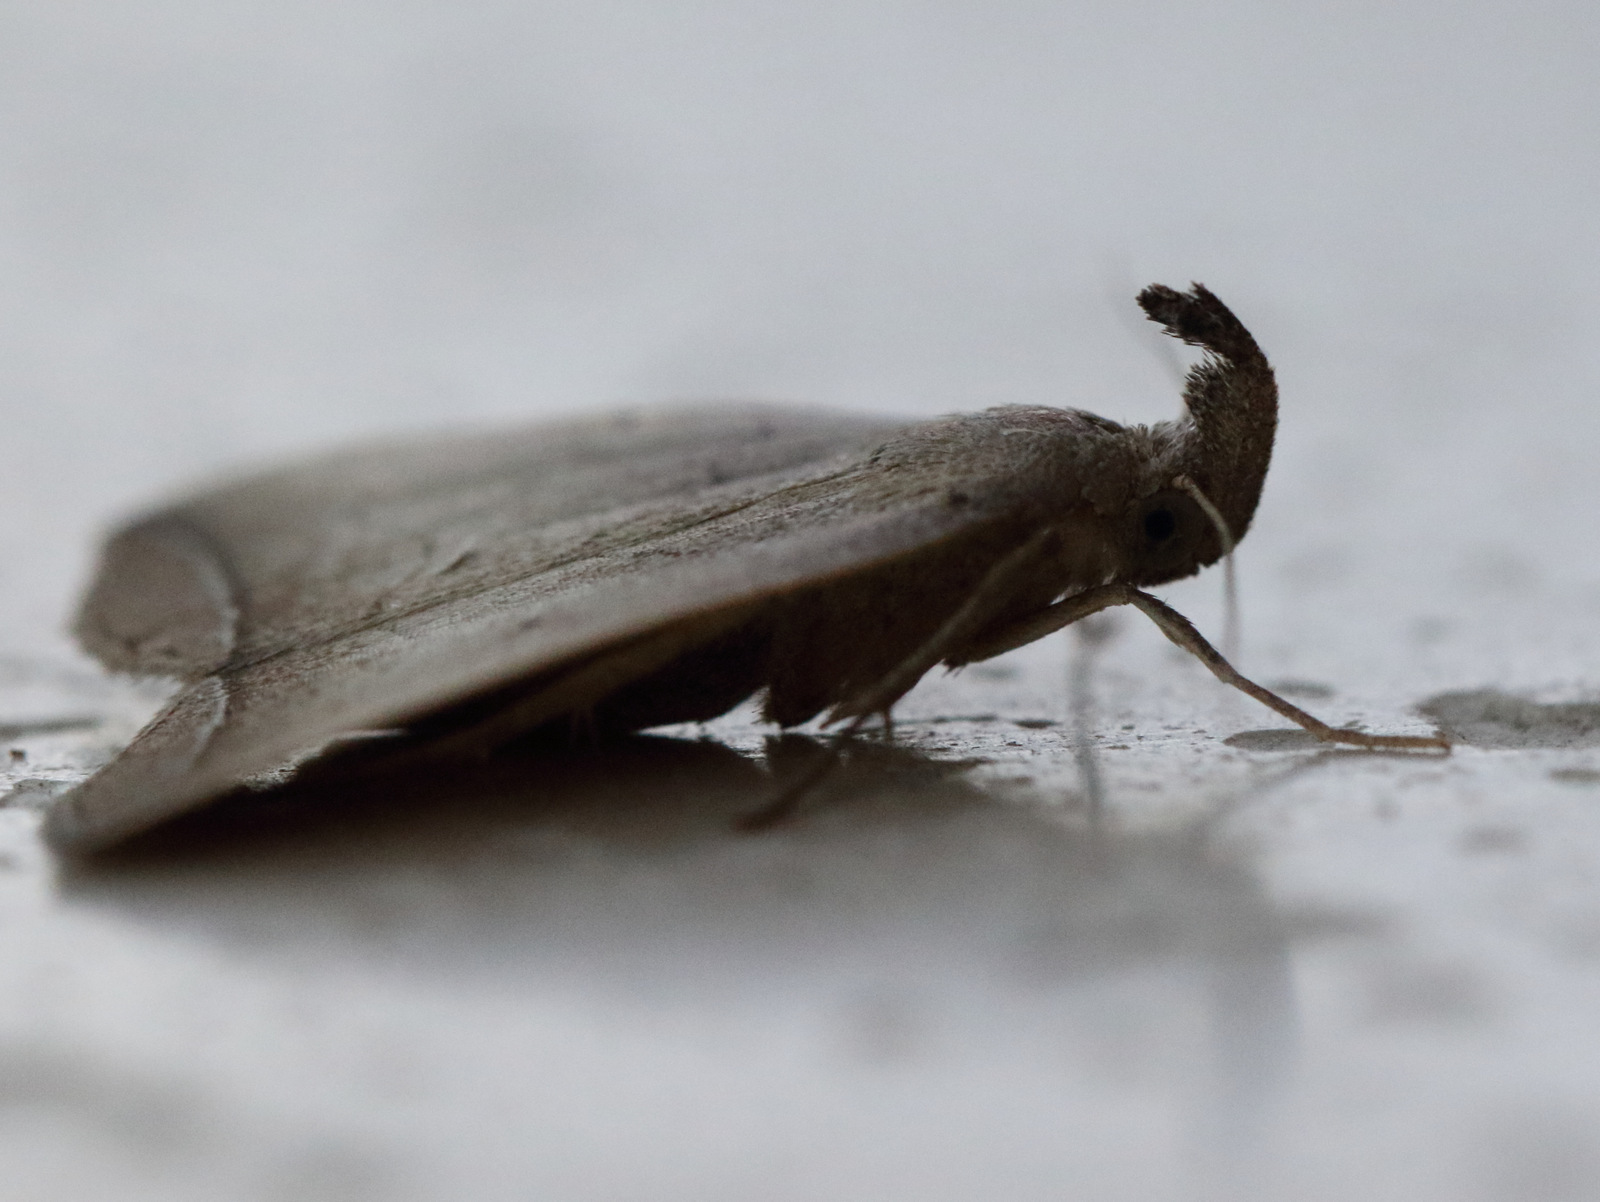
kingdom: Animalia
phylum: Arthropoda
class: Insecta
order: Lepidoptera
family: Erebidae
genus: Simplicia
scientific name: Simplicia armatalis
